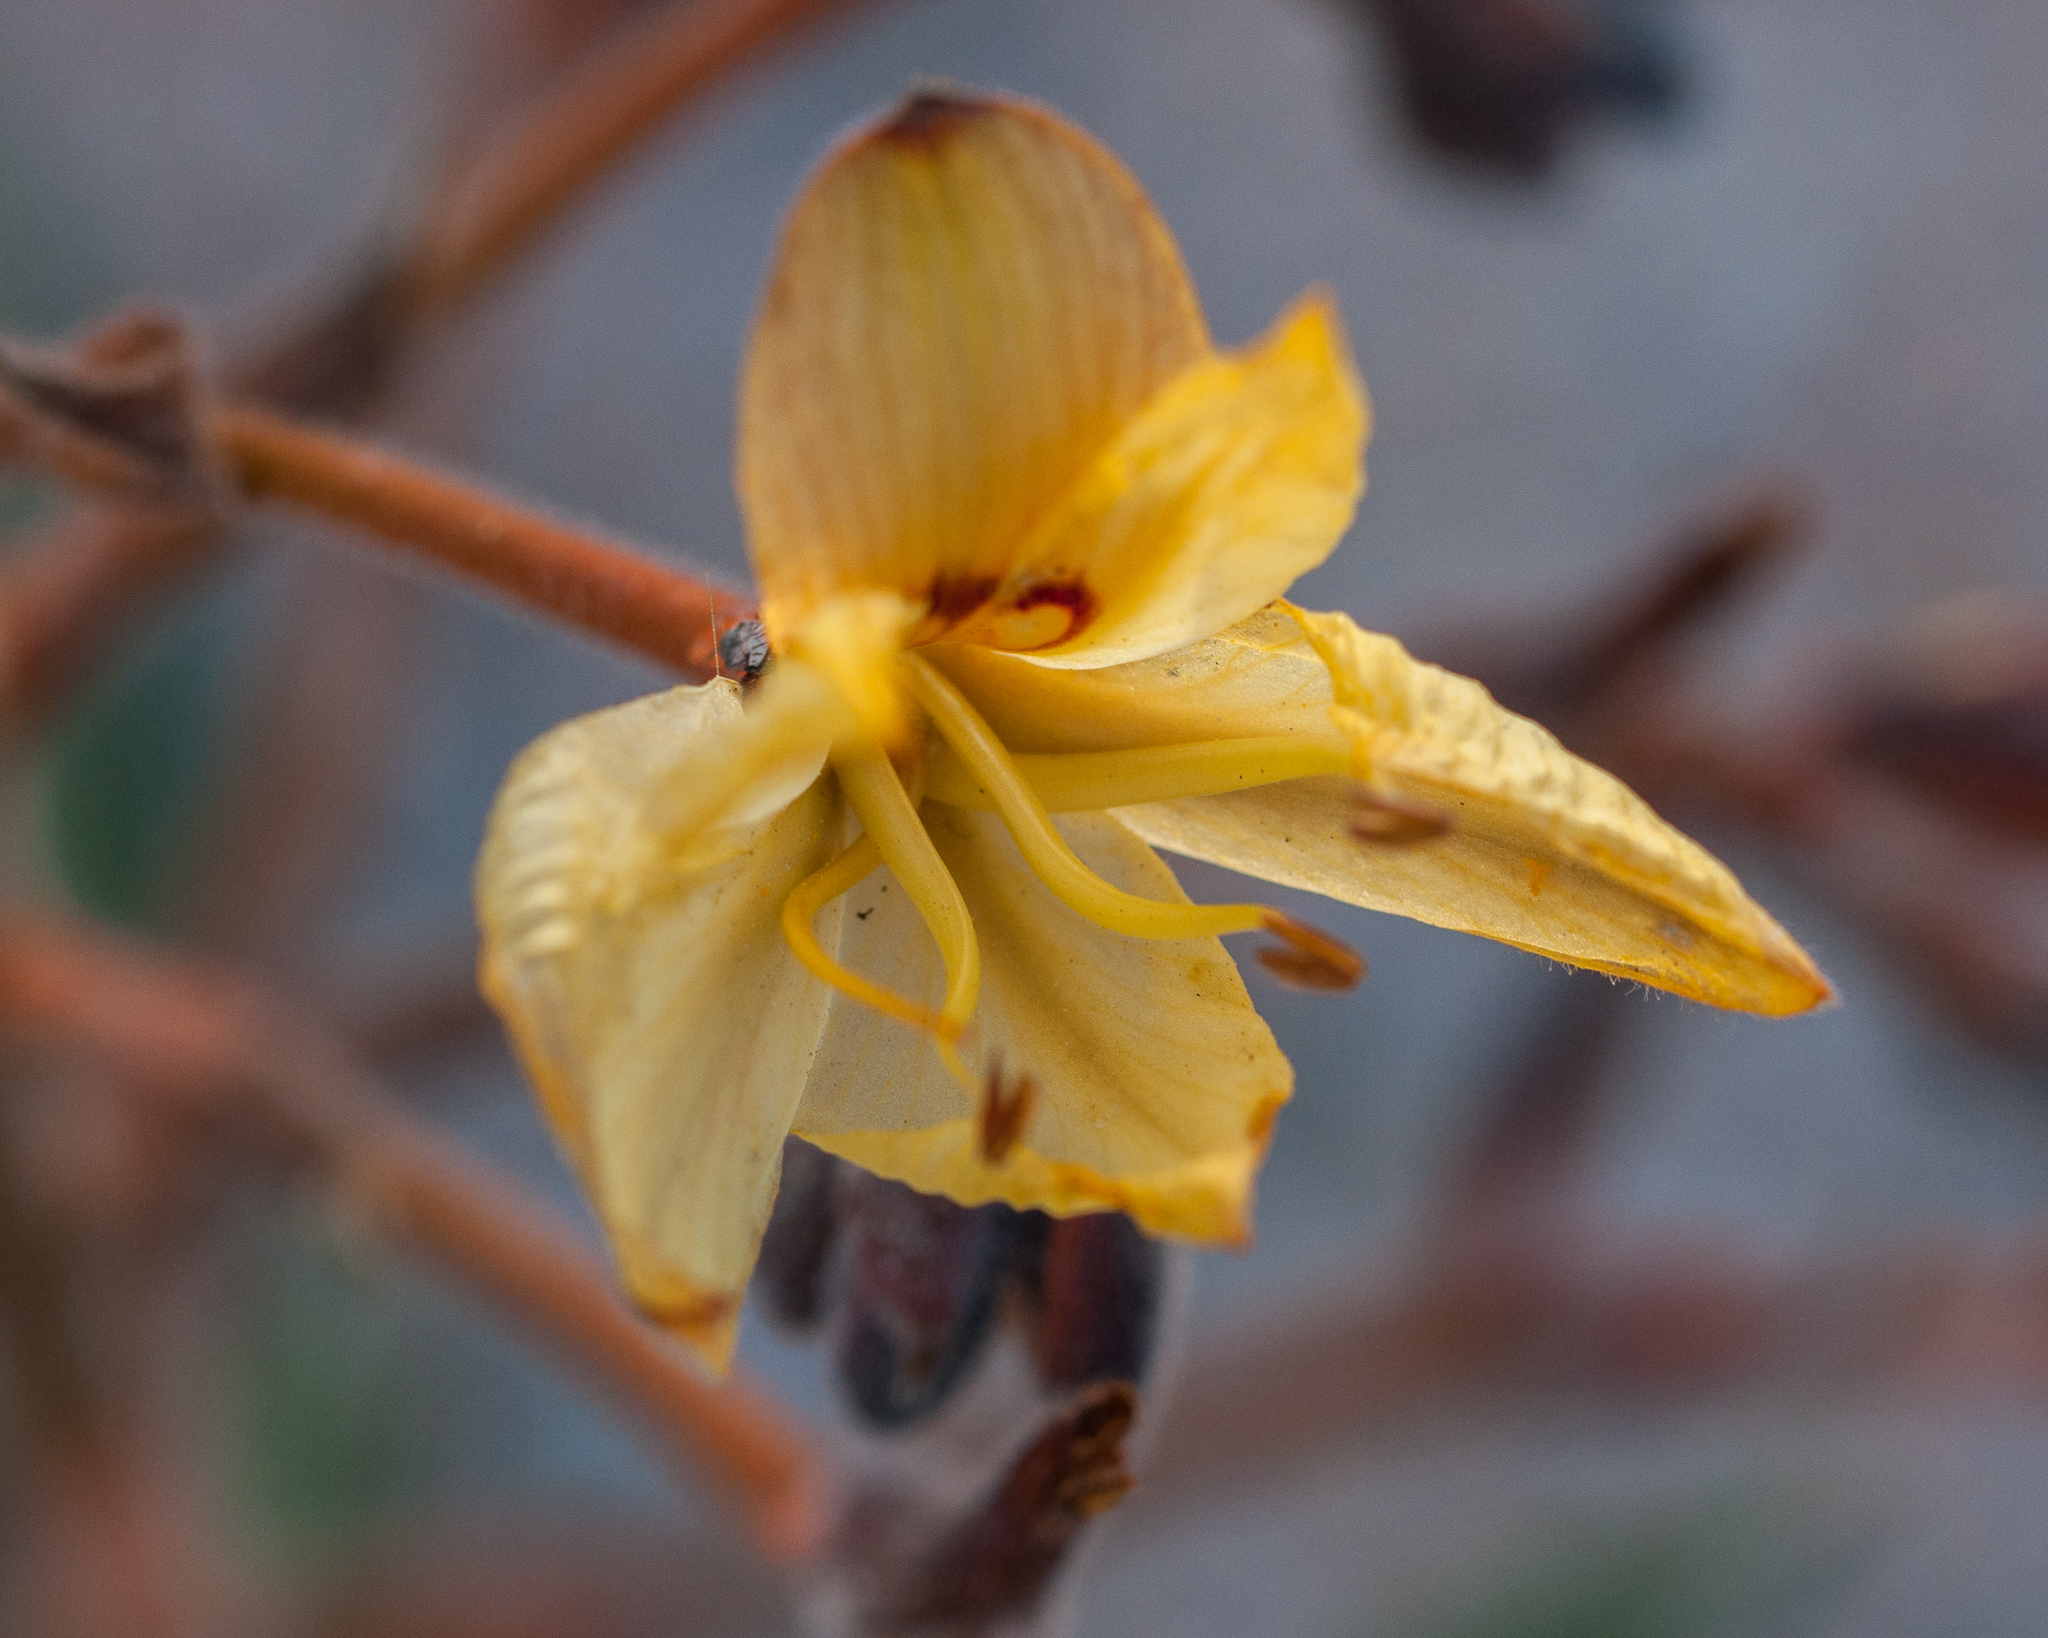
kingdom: Plantae
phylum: Tracheophyta
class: Liliopsida
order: Commelinales
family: Haemodoraceae
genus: Wachendorfia
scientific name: Wachendorfia paniculata
